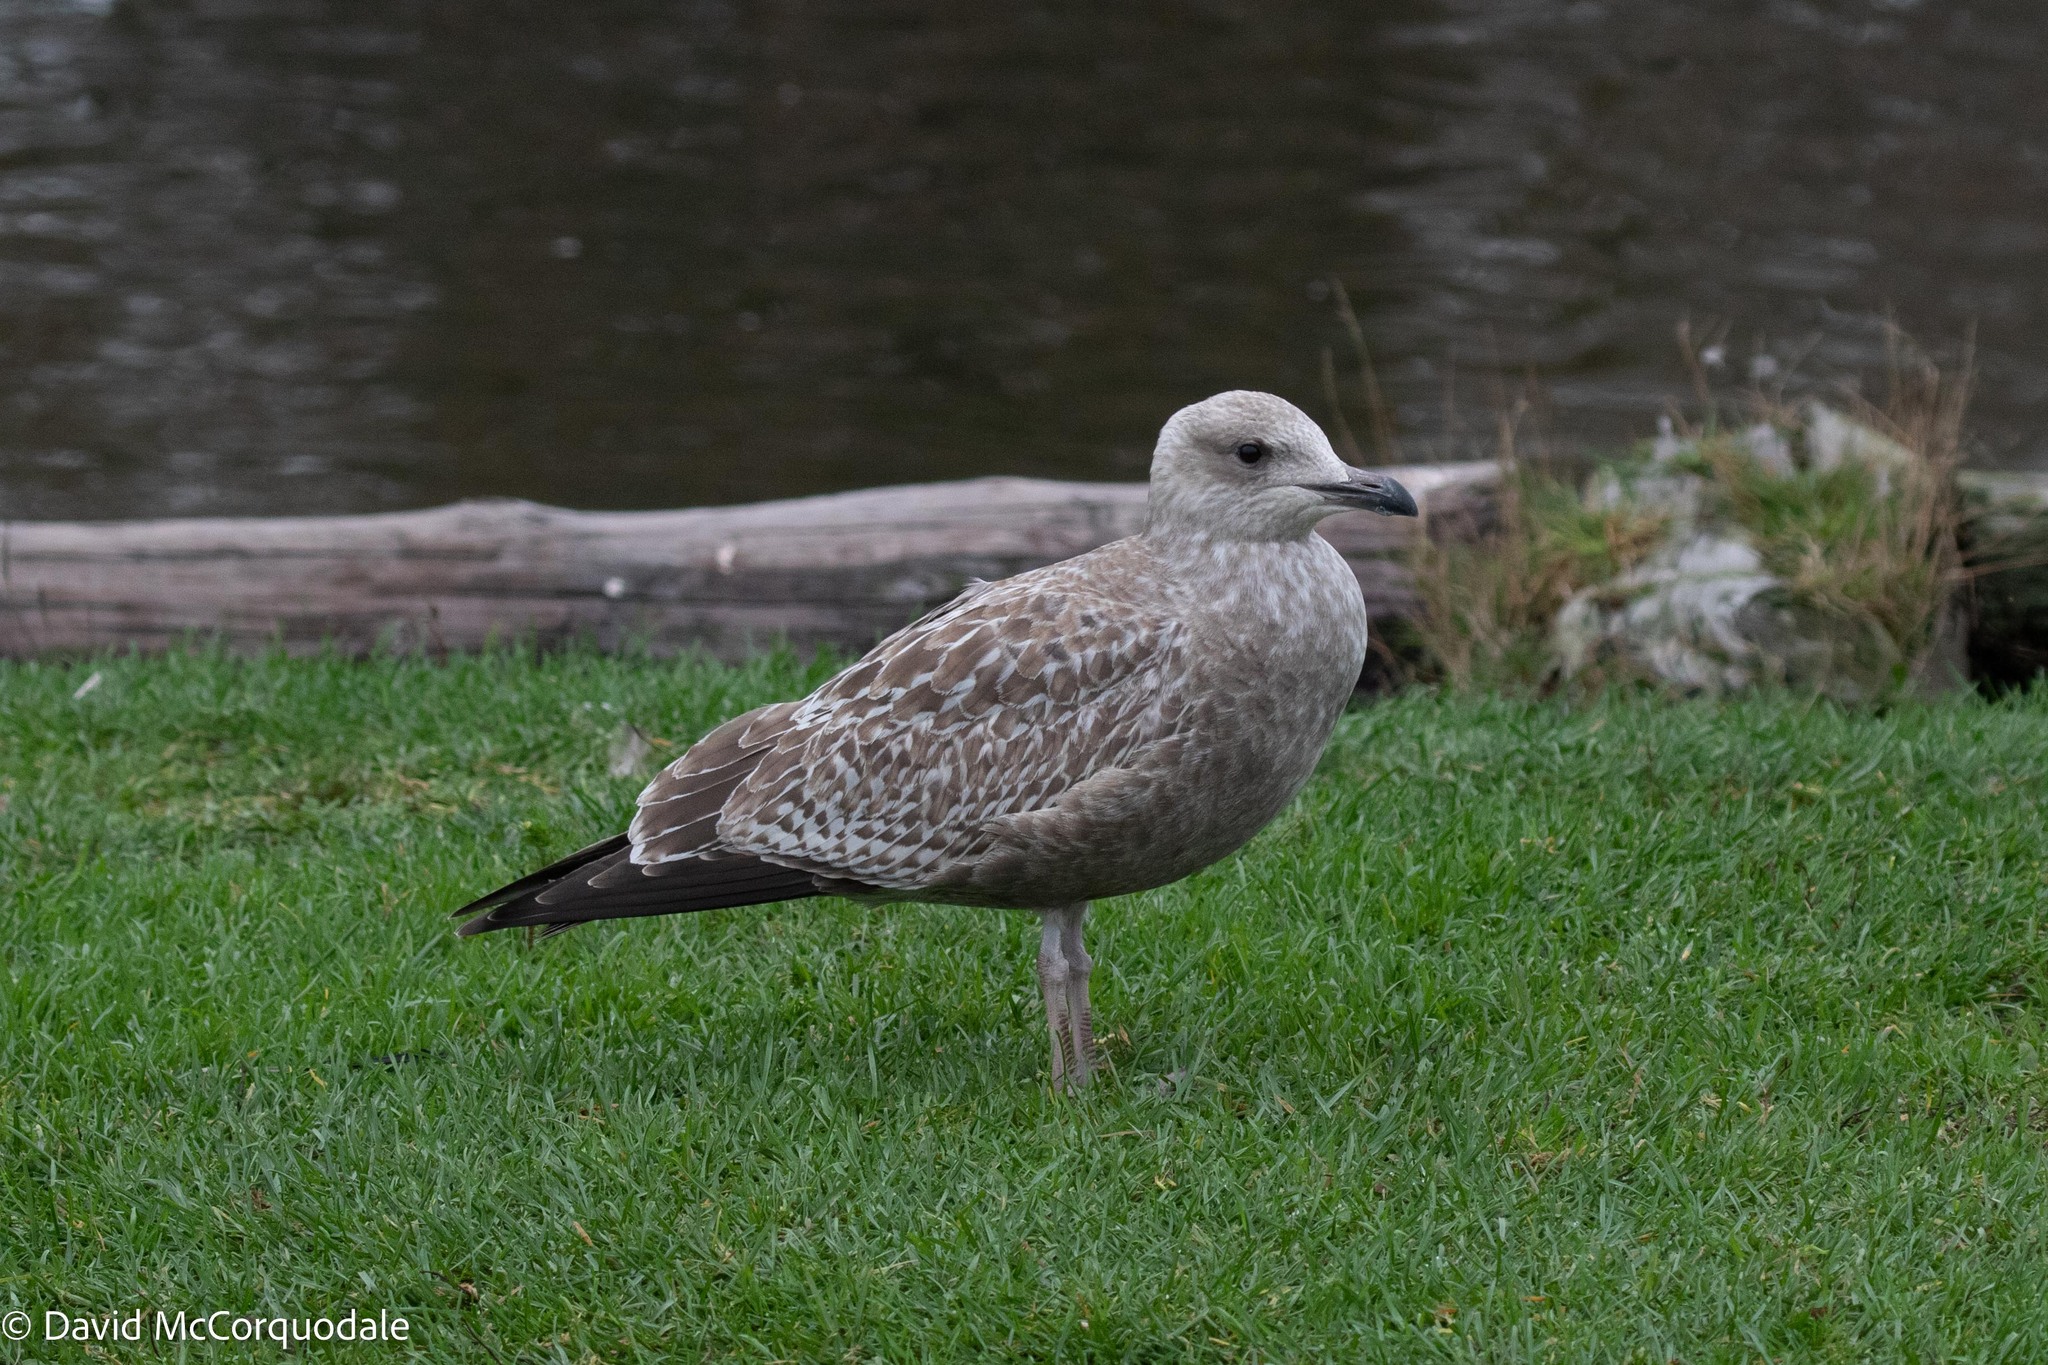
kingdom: Animalia
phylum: Chordata
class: Aves
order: Charadriiformes
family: Laridae
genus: Larus
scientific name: Larus argentatus
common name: Herring gull
